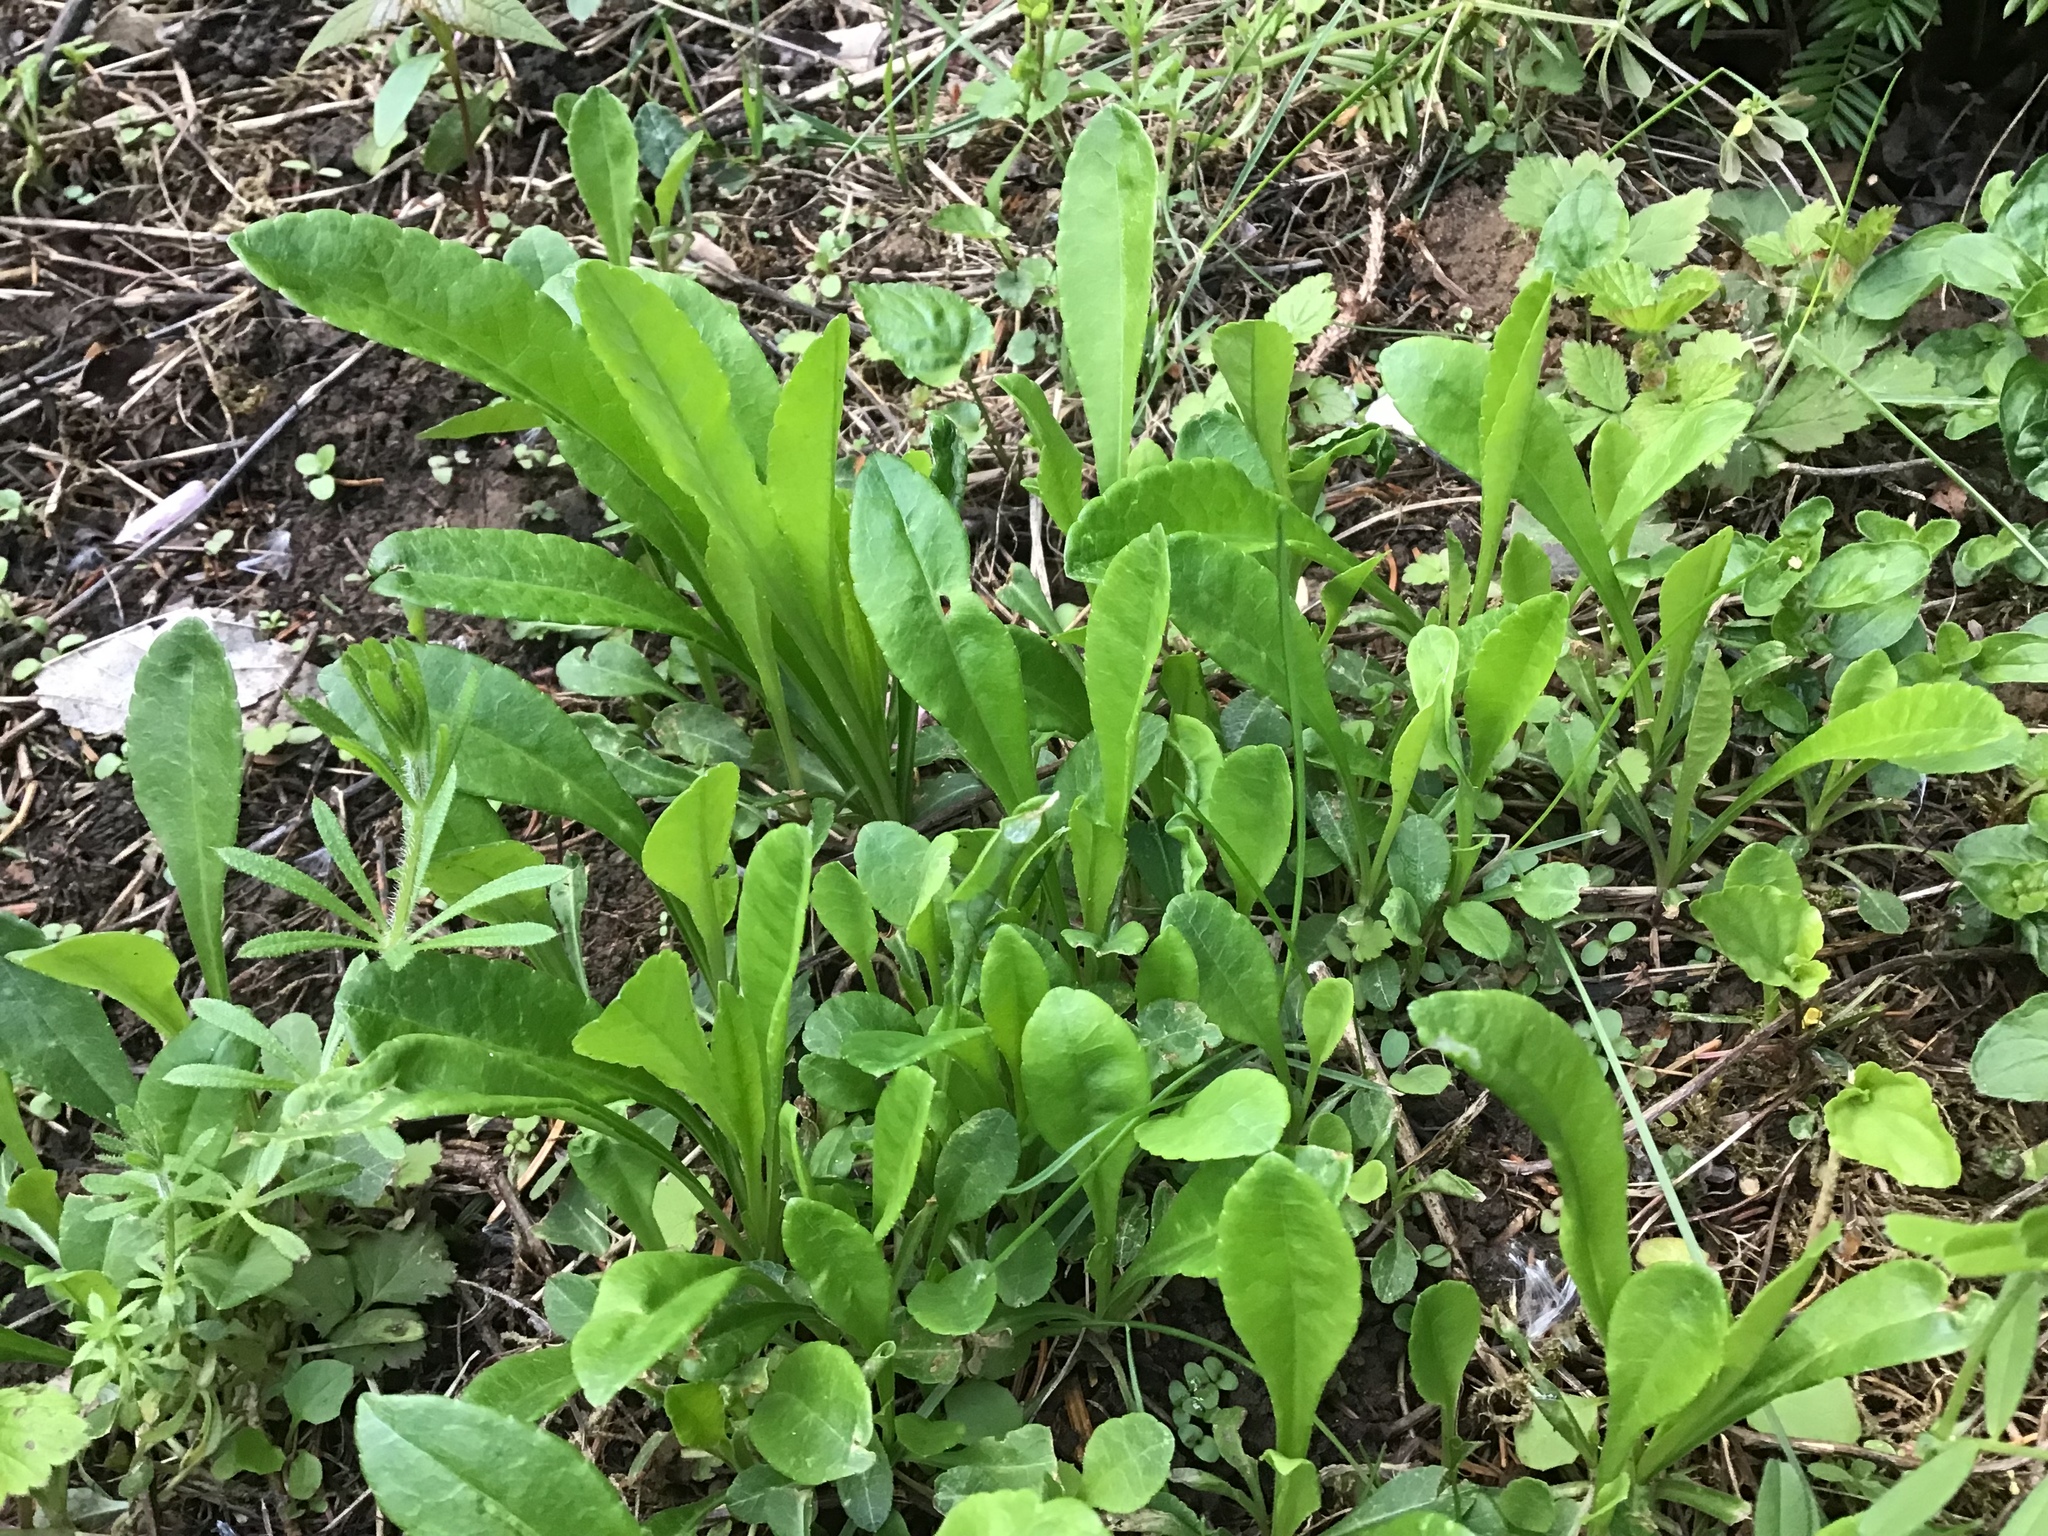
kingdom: Plantae
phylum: Tracheophyta
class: Magnoliopsida
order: Asterales
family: Campanulaceae
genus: Campanula
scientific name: Campanula persicifolia
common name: Peach-leaved bellflower
